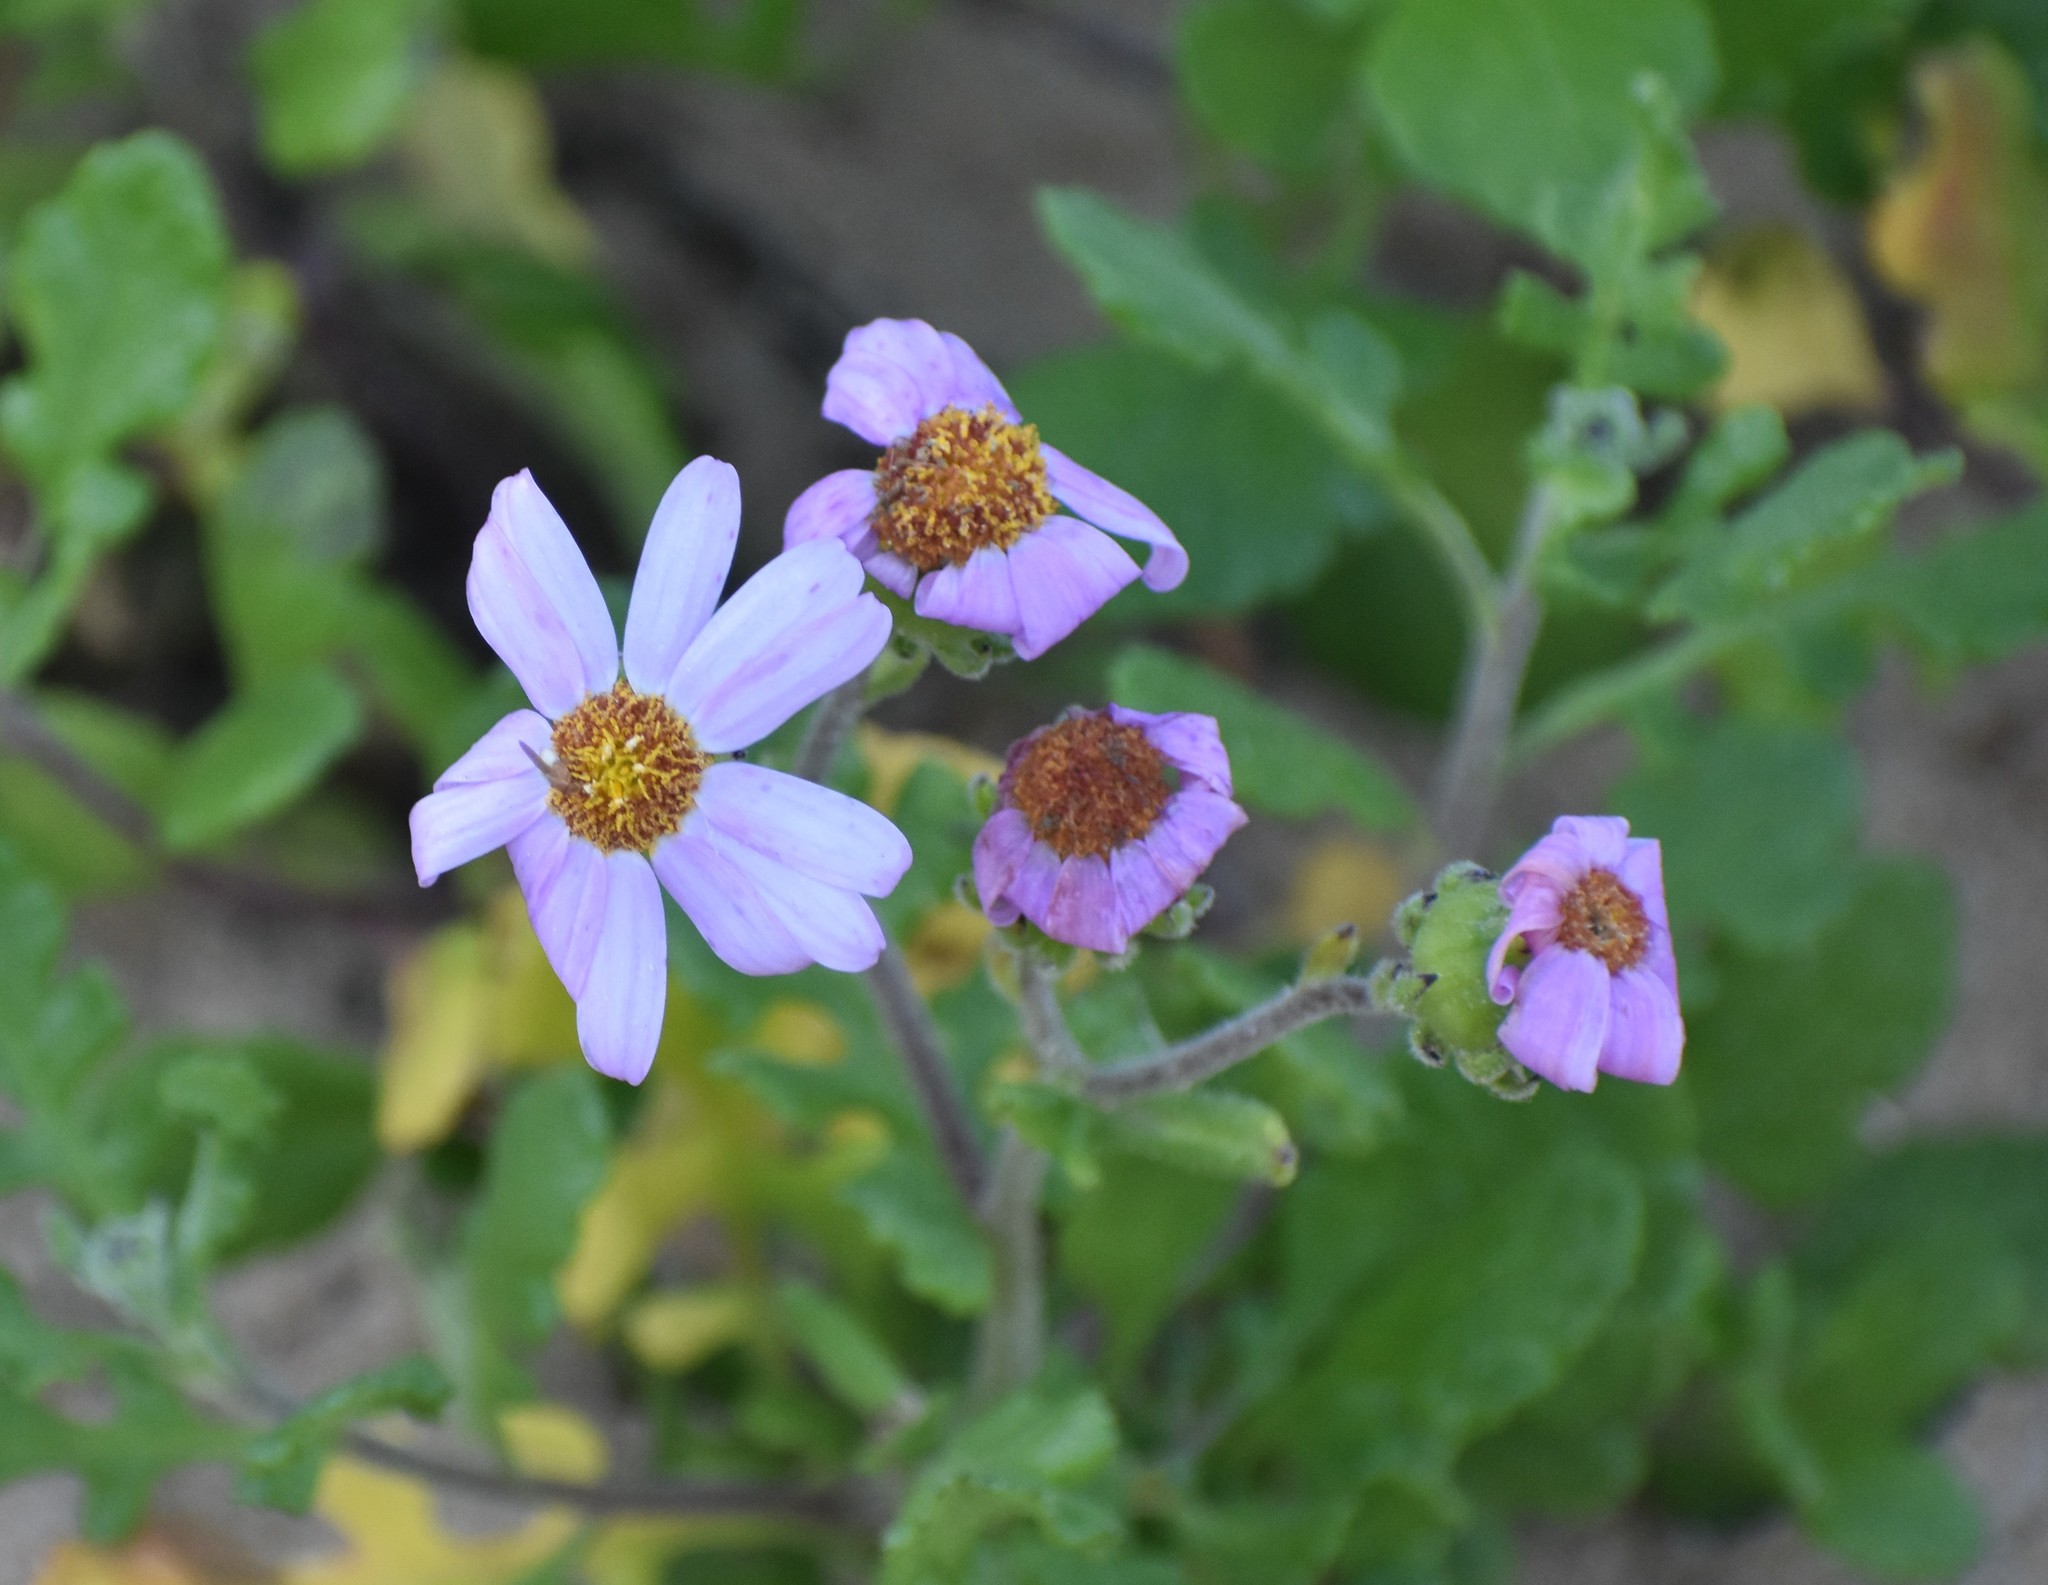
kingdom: Plantae
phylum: Tracheophyta
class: Magnoliopsida
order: Asterales
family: Asteraceae
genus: Senecio
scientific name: Senecio elegans
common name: Purple groundsel
